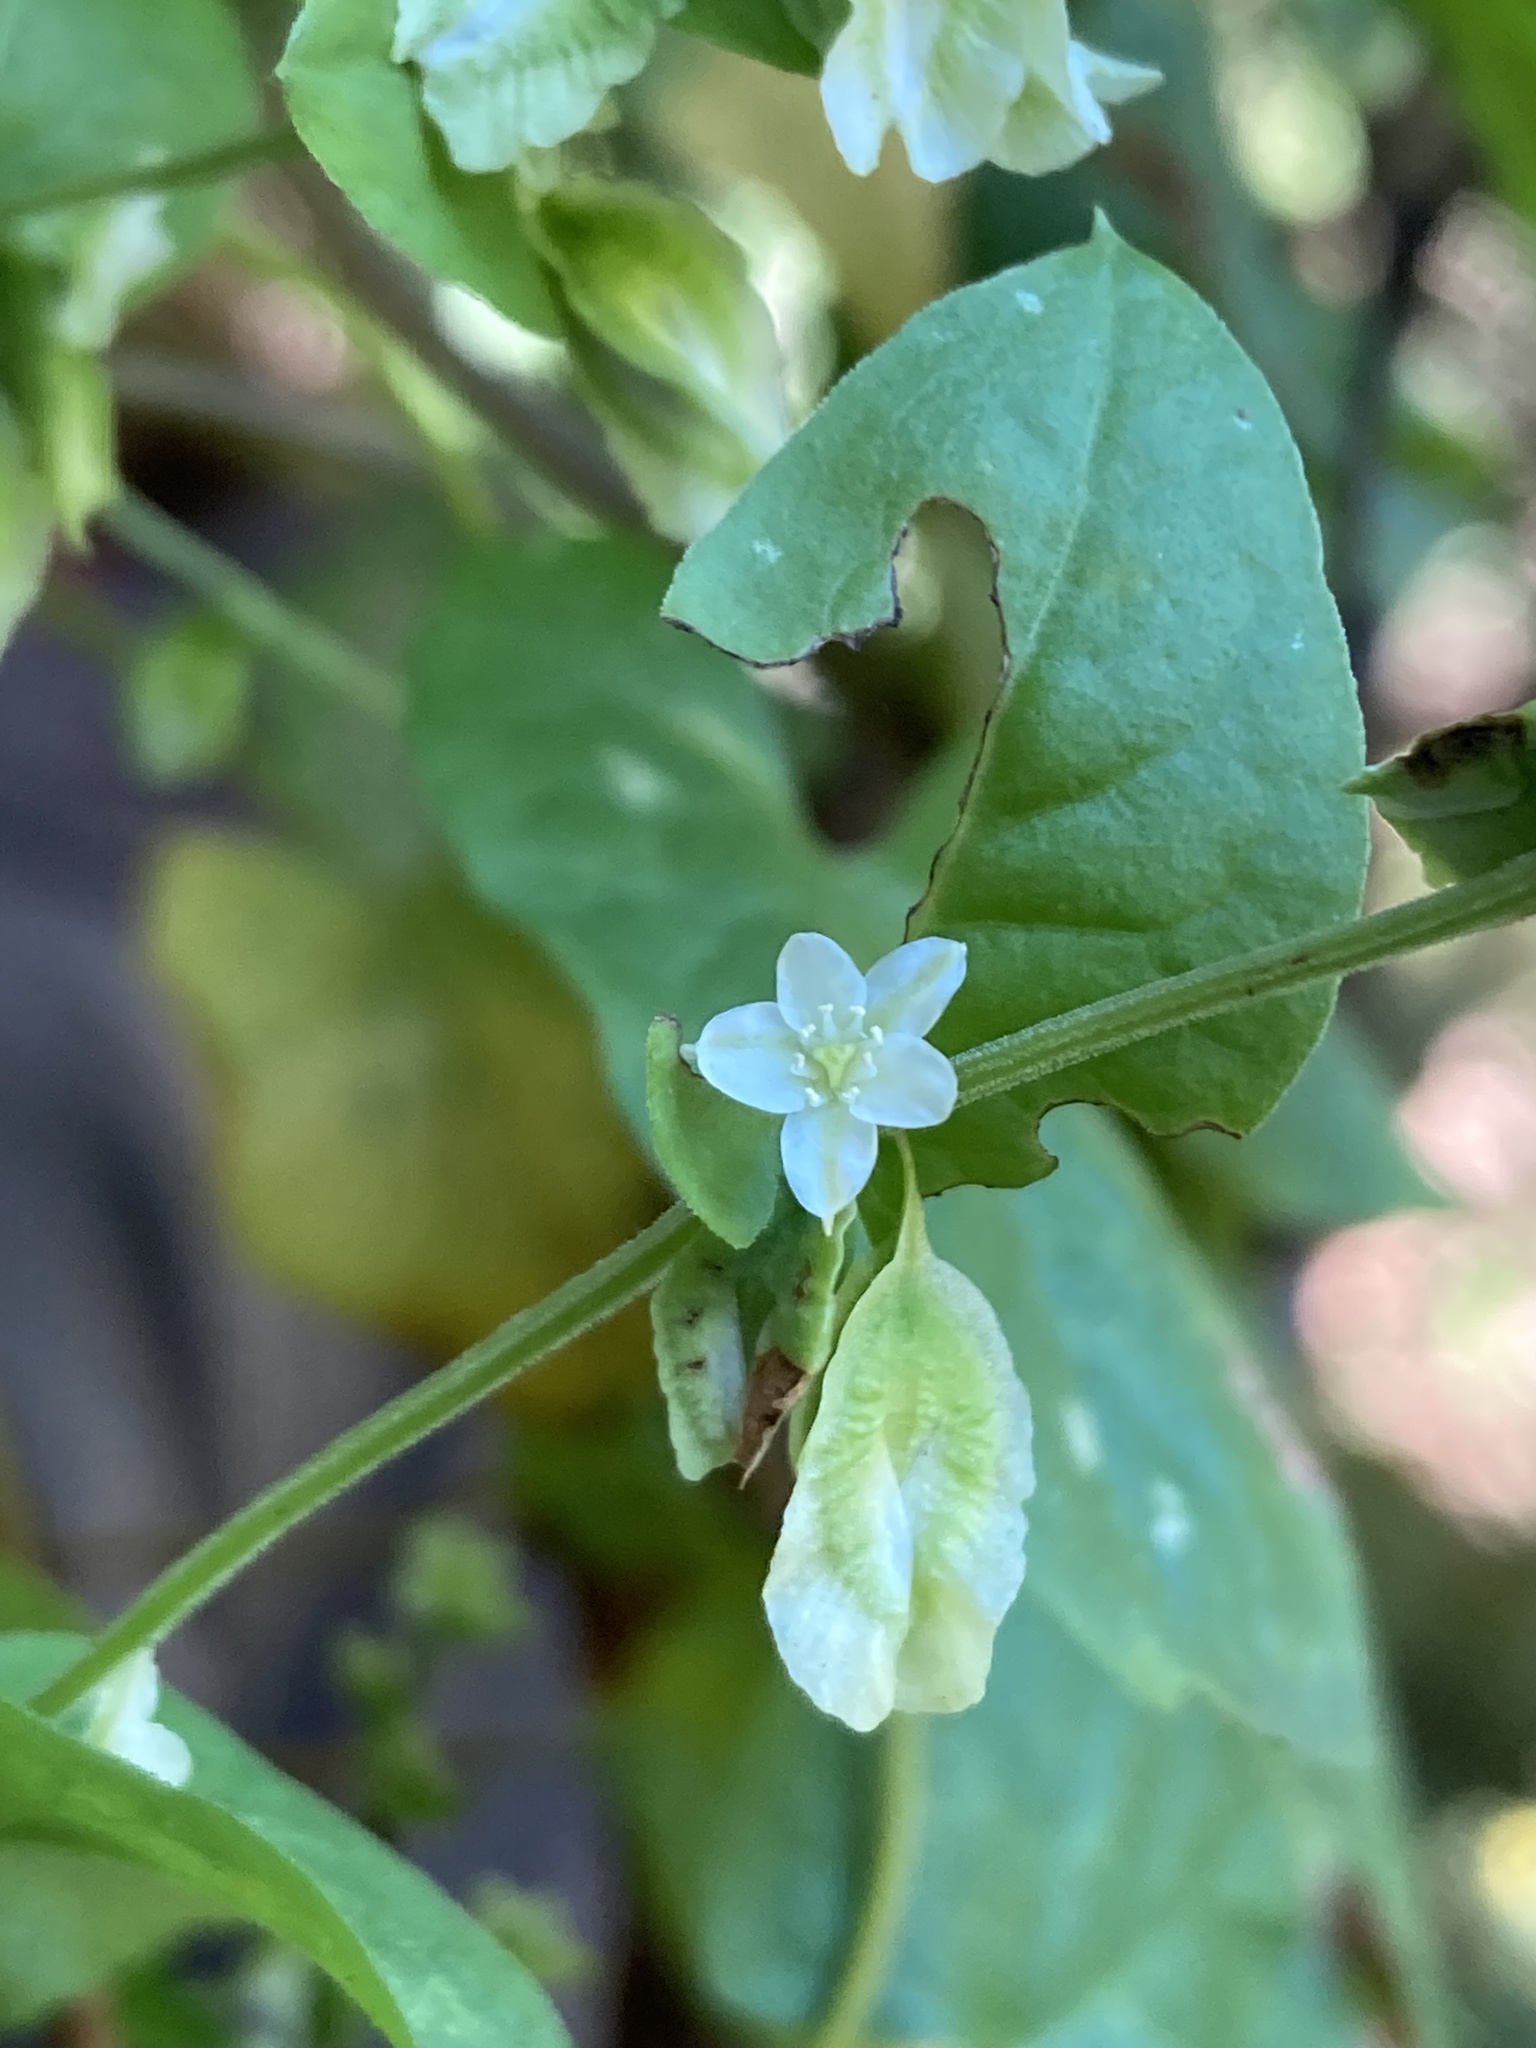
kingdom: Plantae
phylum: Tracheophyta
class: Magnoliopsida
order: Caryophyllales
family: Polygonaceae
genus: Fallopia
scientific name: Fallopia scandens
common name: Climbing false buckwheat
